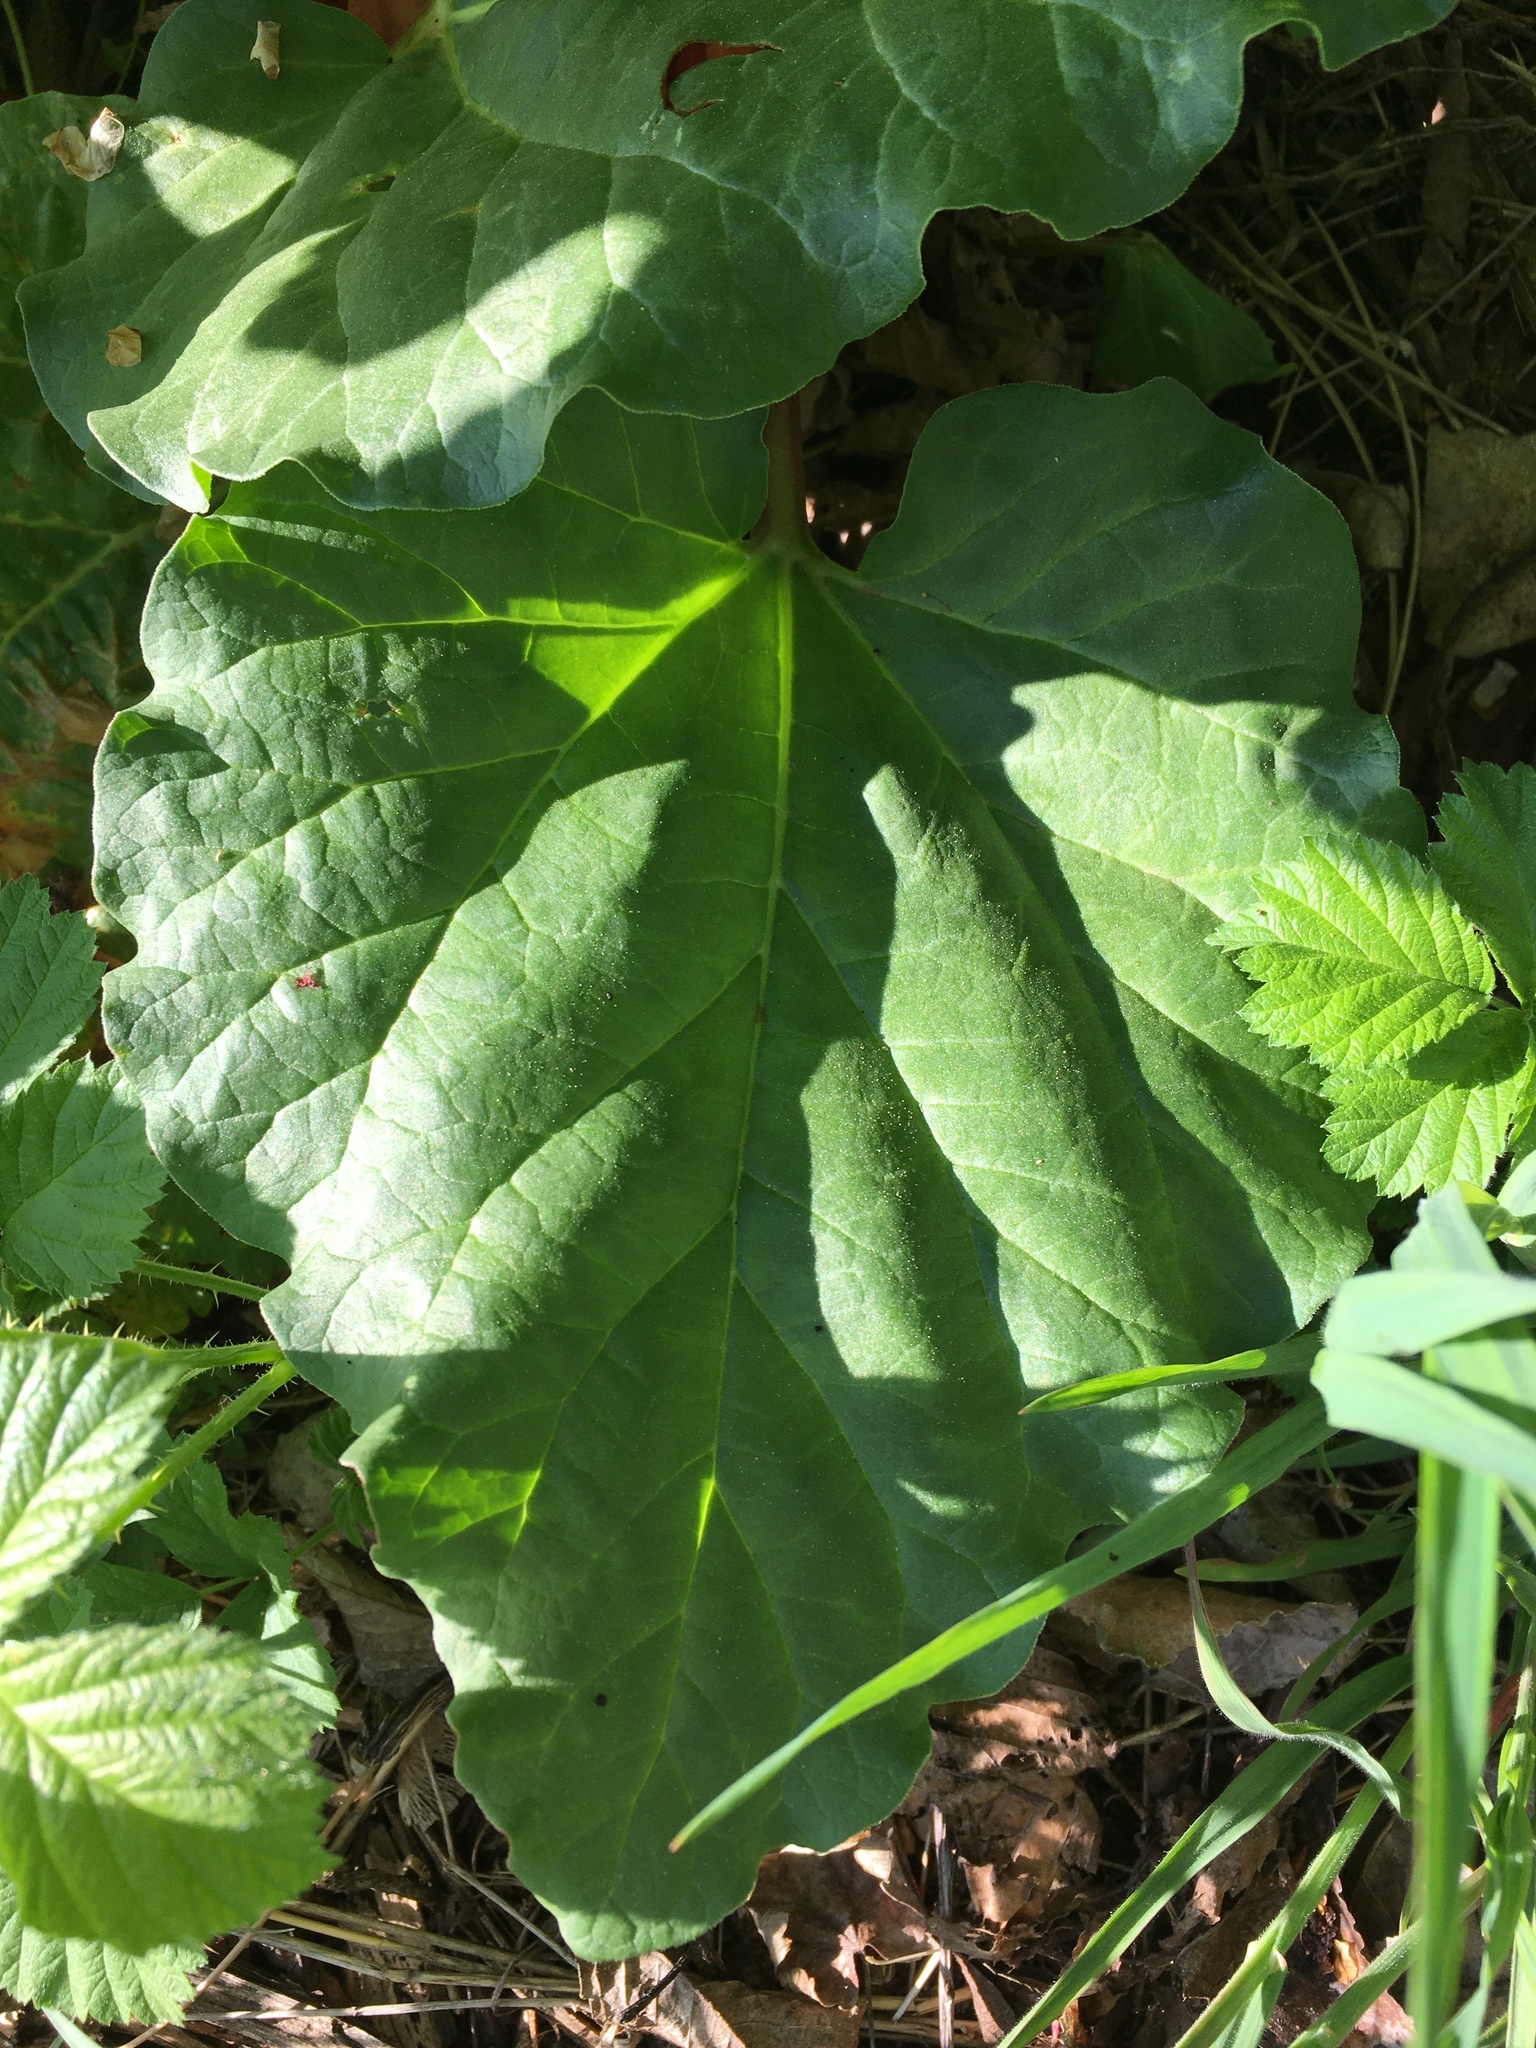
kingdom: Plantae
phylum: Tracheophyta
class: Magnoliopsida
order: Caryophyllales
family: Polygonaceae
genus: Rheum
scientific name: Rheum rhabarbarum
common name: Garden rhubarb
